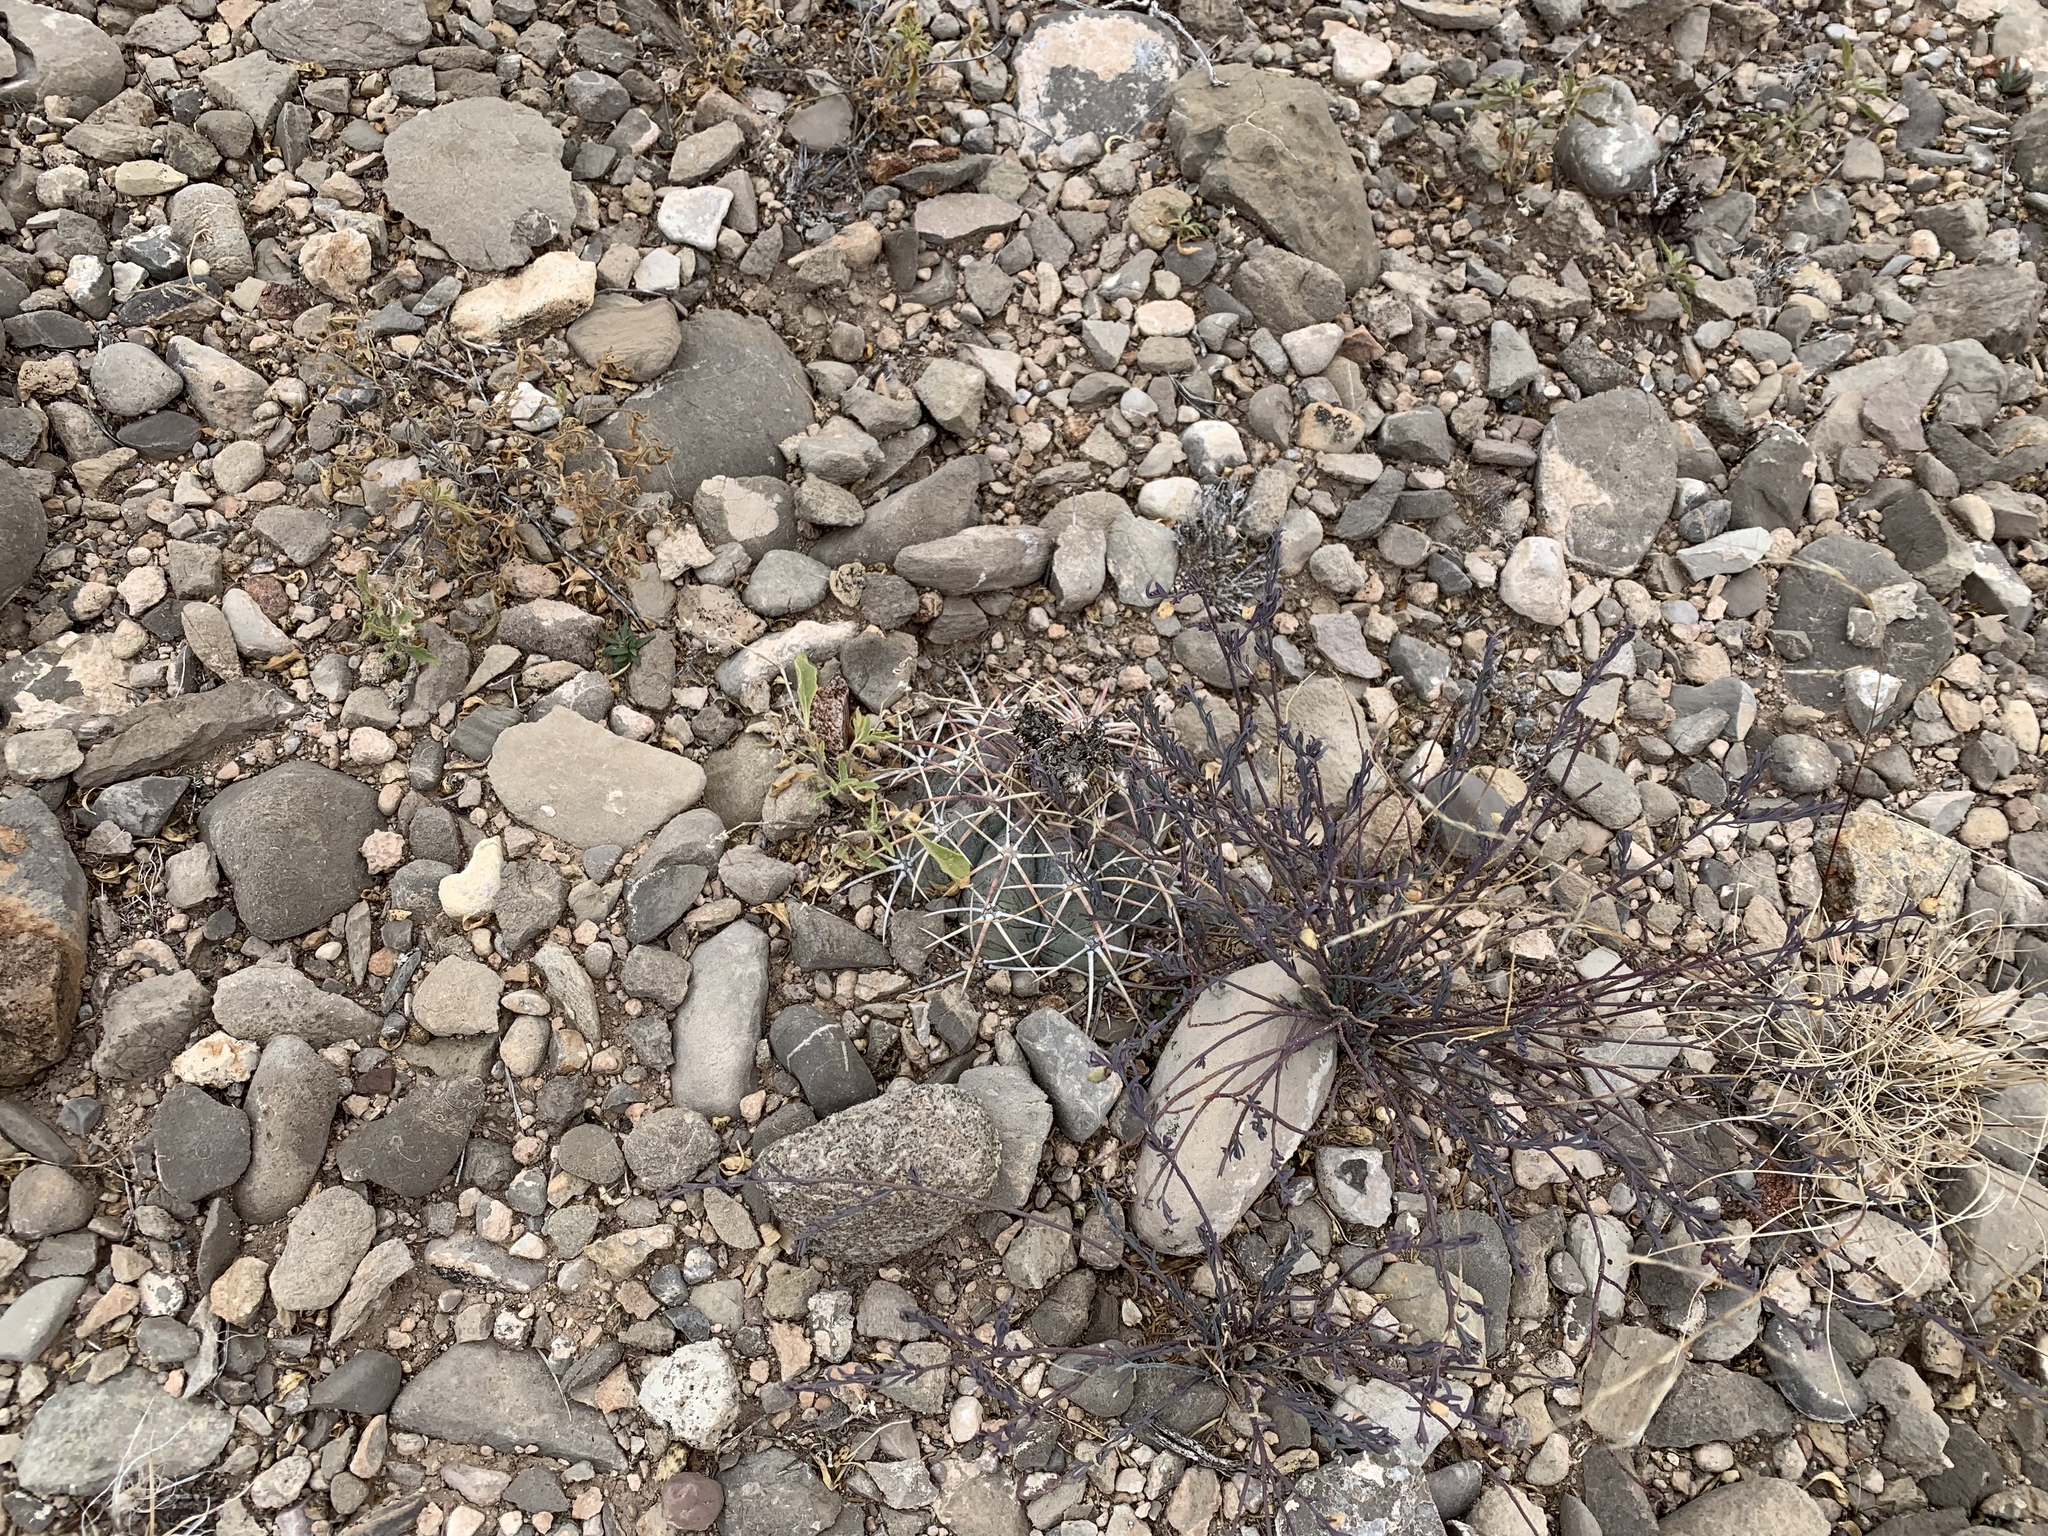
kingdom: Plantae
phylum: Tracheophyta
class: Magnoliopsida
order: Caryophyllales
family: Cactaceae
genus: Echinocactus
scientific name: Echinocactus horizonthalonius
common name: Devilshead
